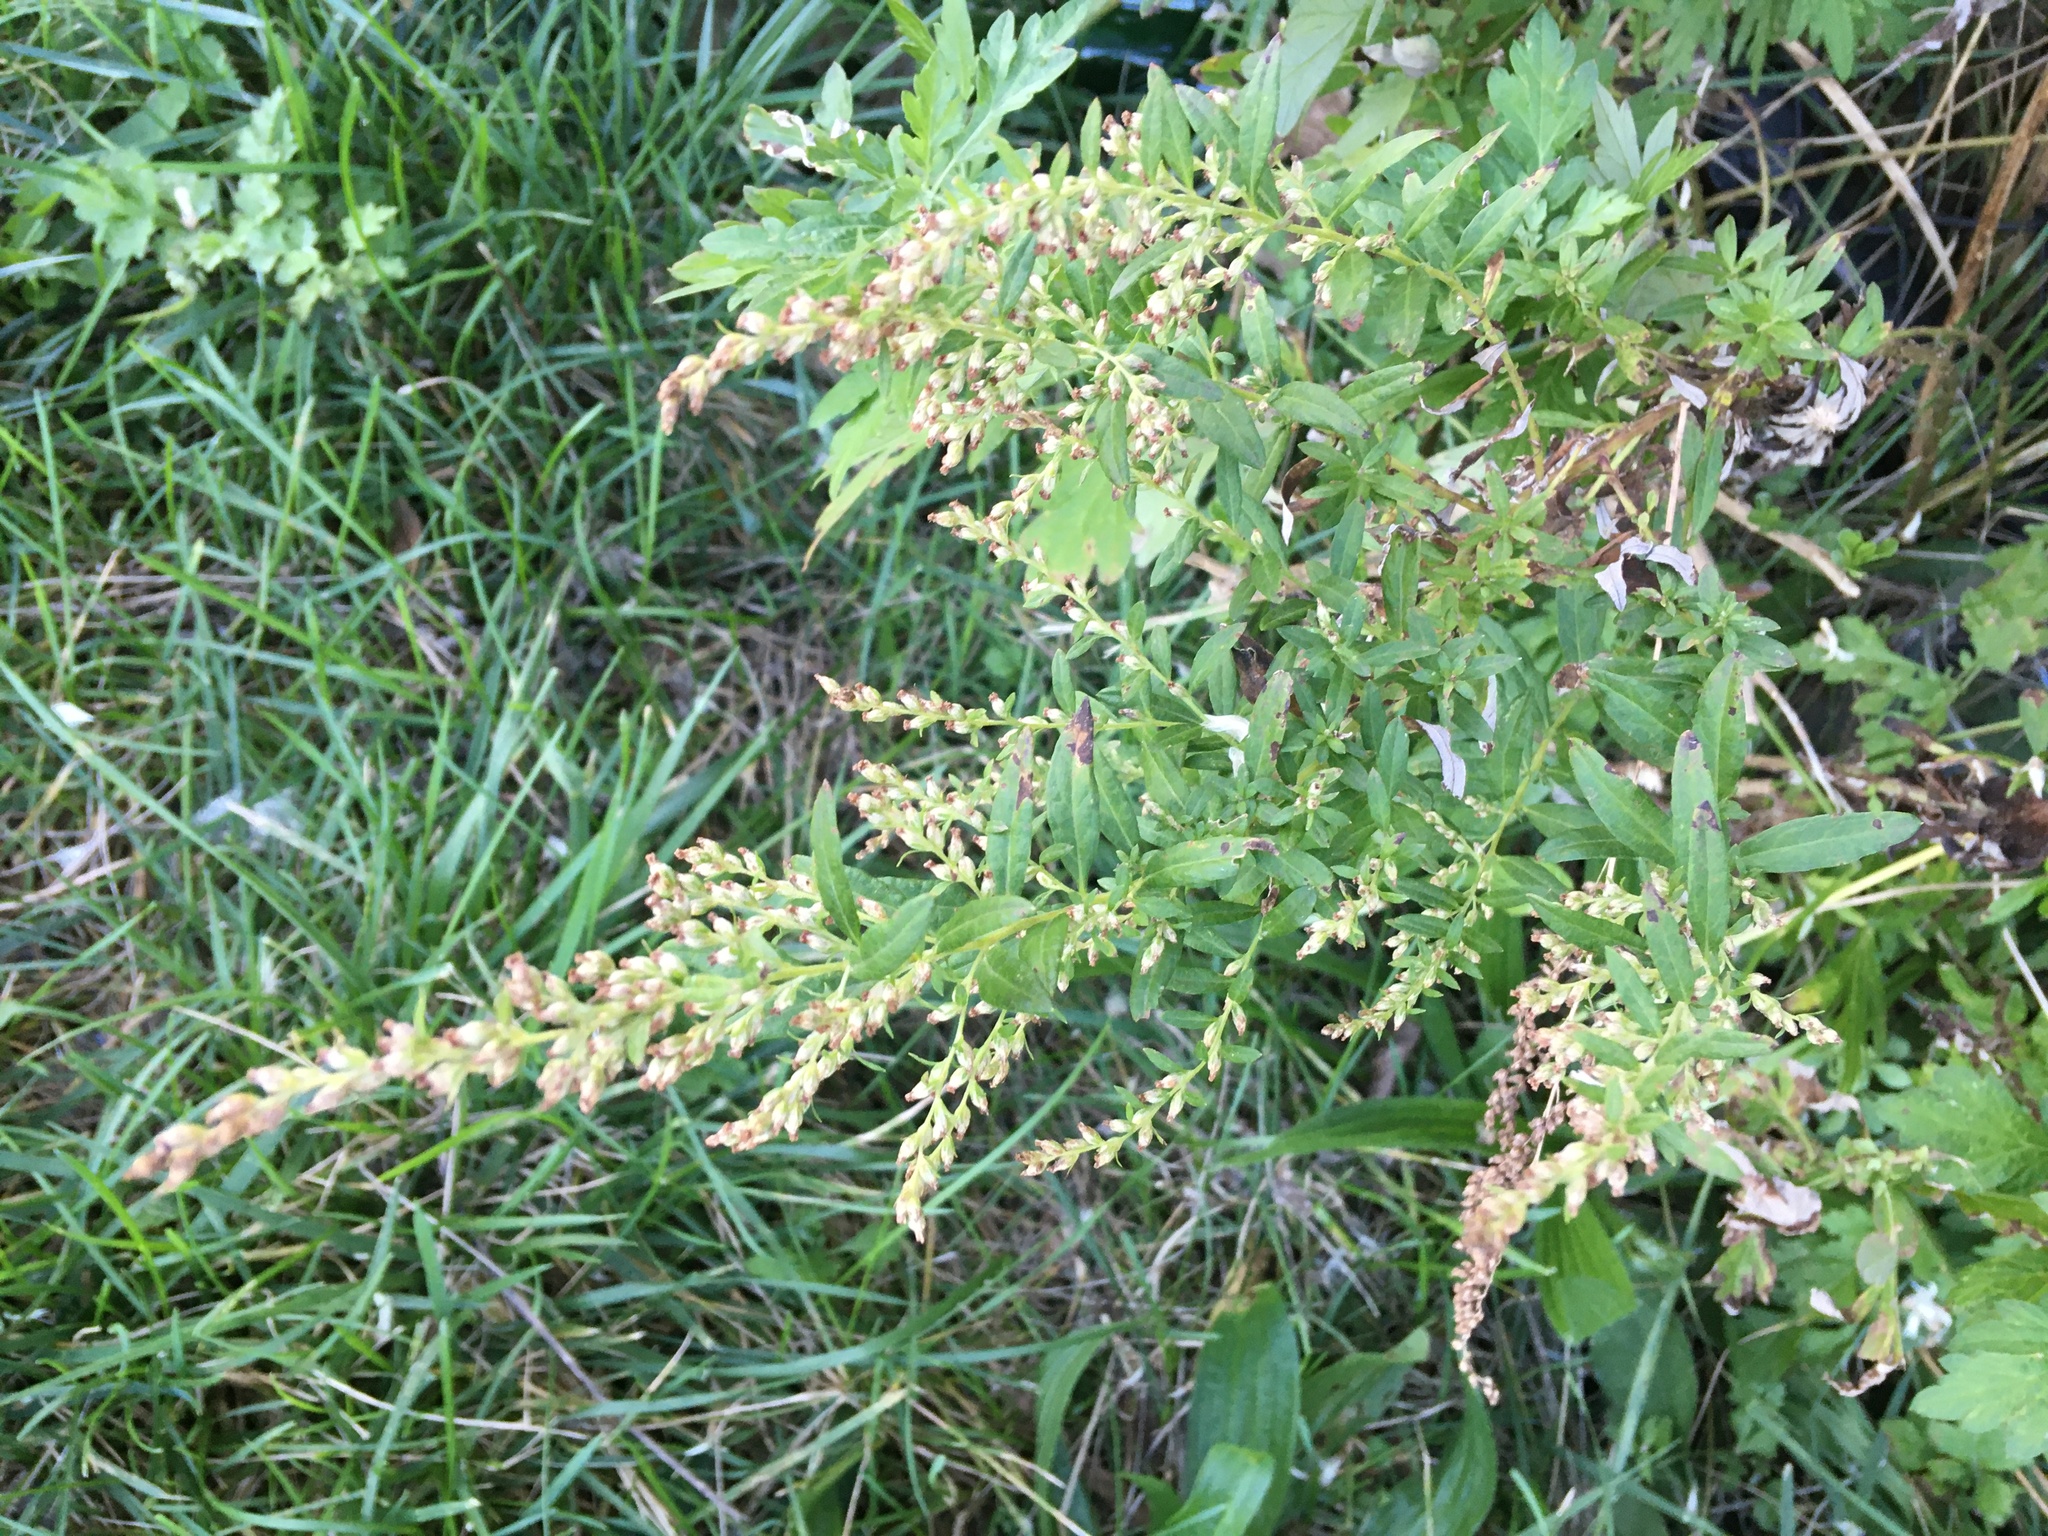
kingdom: Plantae
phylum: Tracheophyta
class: Magnoliopsida
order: Asterales
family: Asteraceae
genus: Artemisia
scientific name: Artemisia vulgaris
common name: Mugwort
